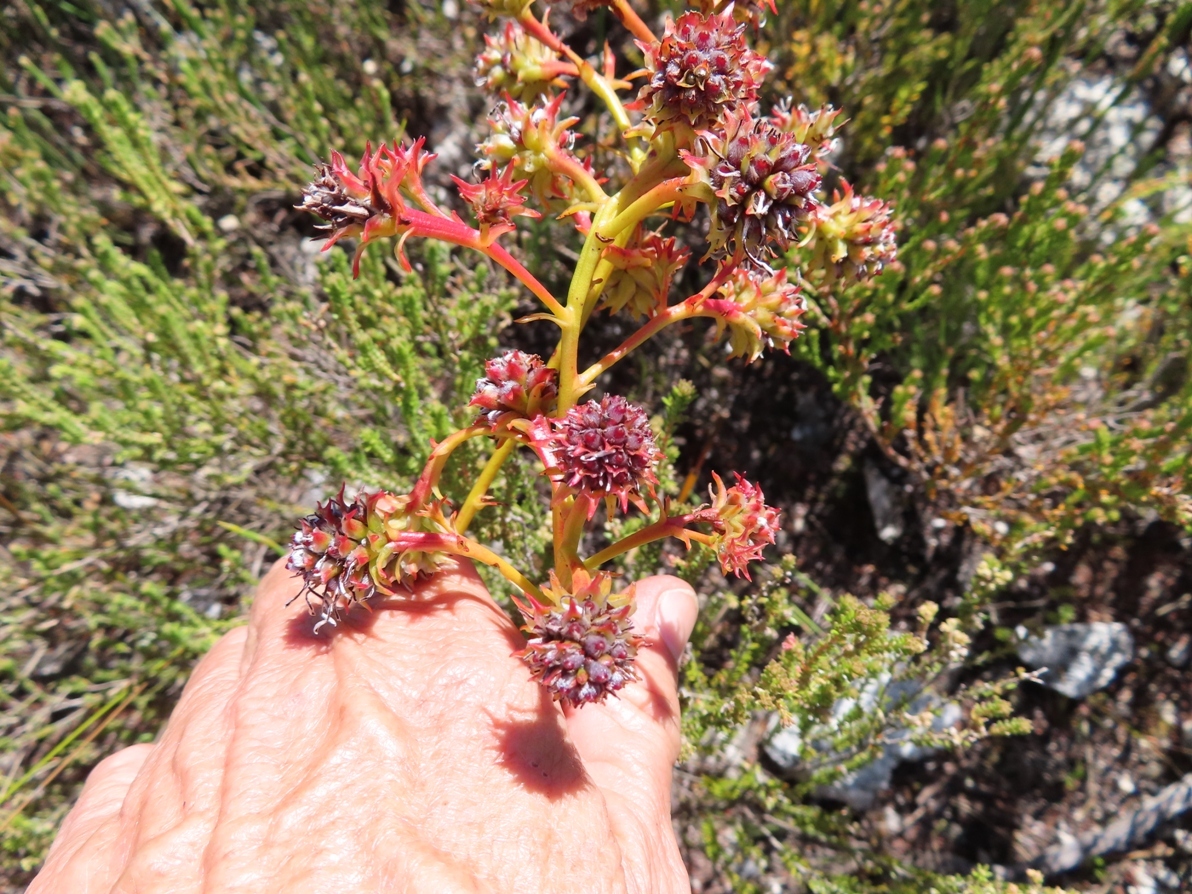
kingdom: Plantae
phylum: Tracheophyta
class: Magnoliopsida
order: Proteales
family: Proteaceae
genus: Serruria
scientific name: Serruria elongata
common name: Long-stalk spiderhead
